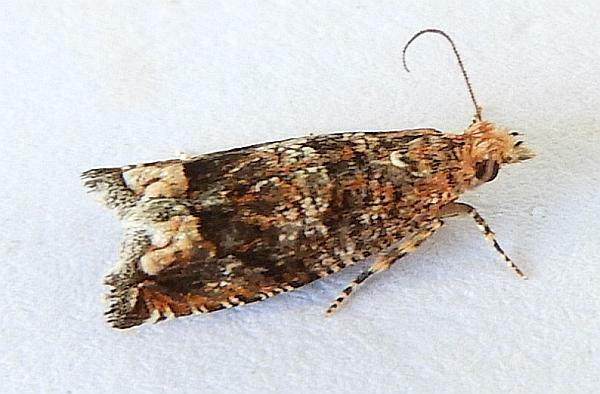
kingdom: Animalia
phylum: Arthropoda
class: Insecta
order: Lepidoptera
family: Tortricidae
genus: Epiblema
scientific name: Epiblema
